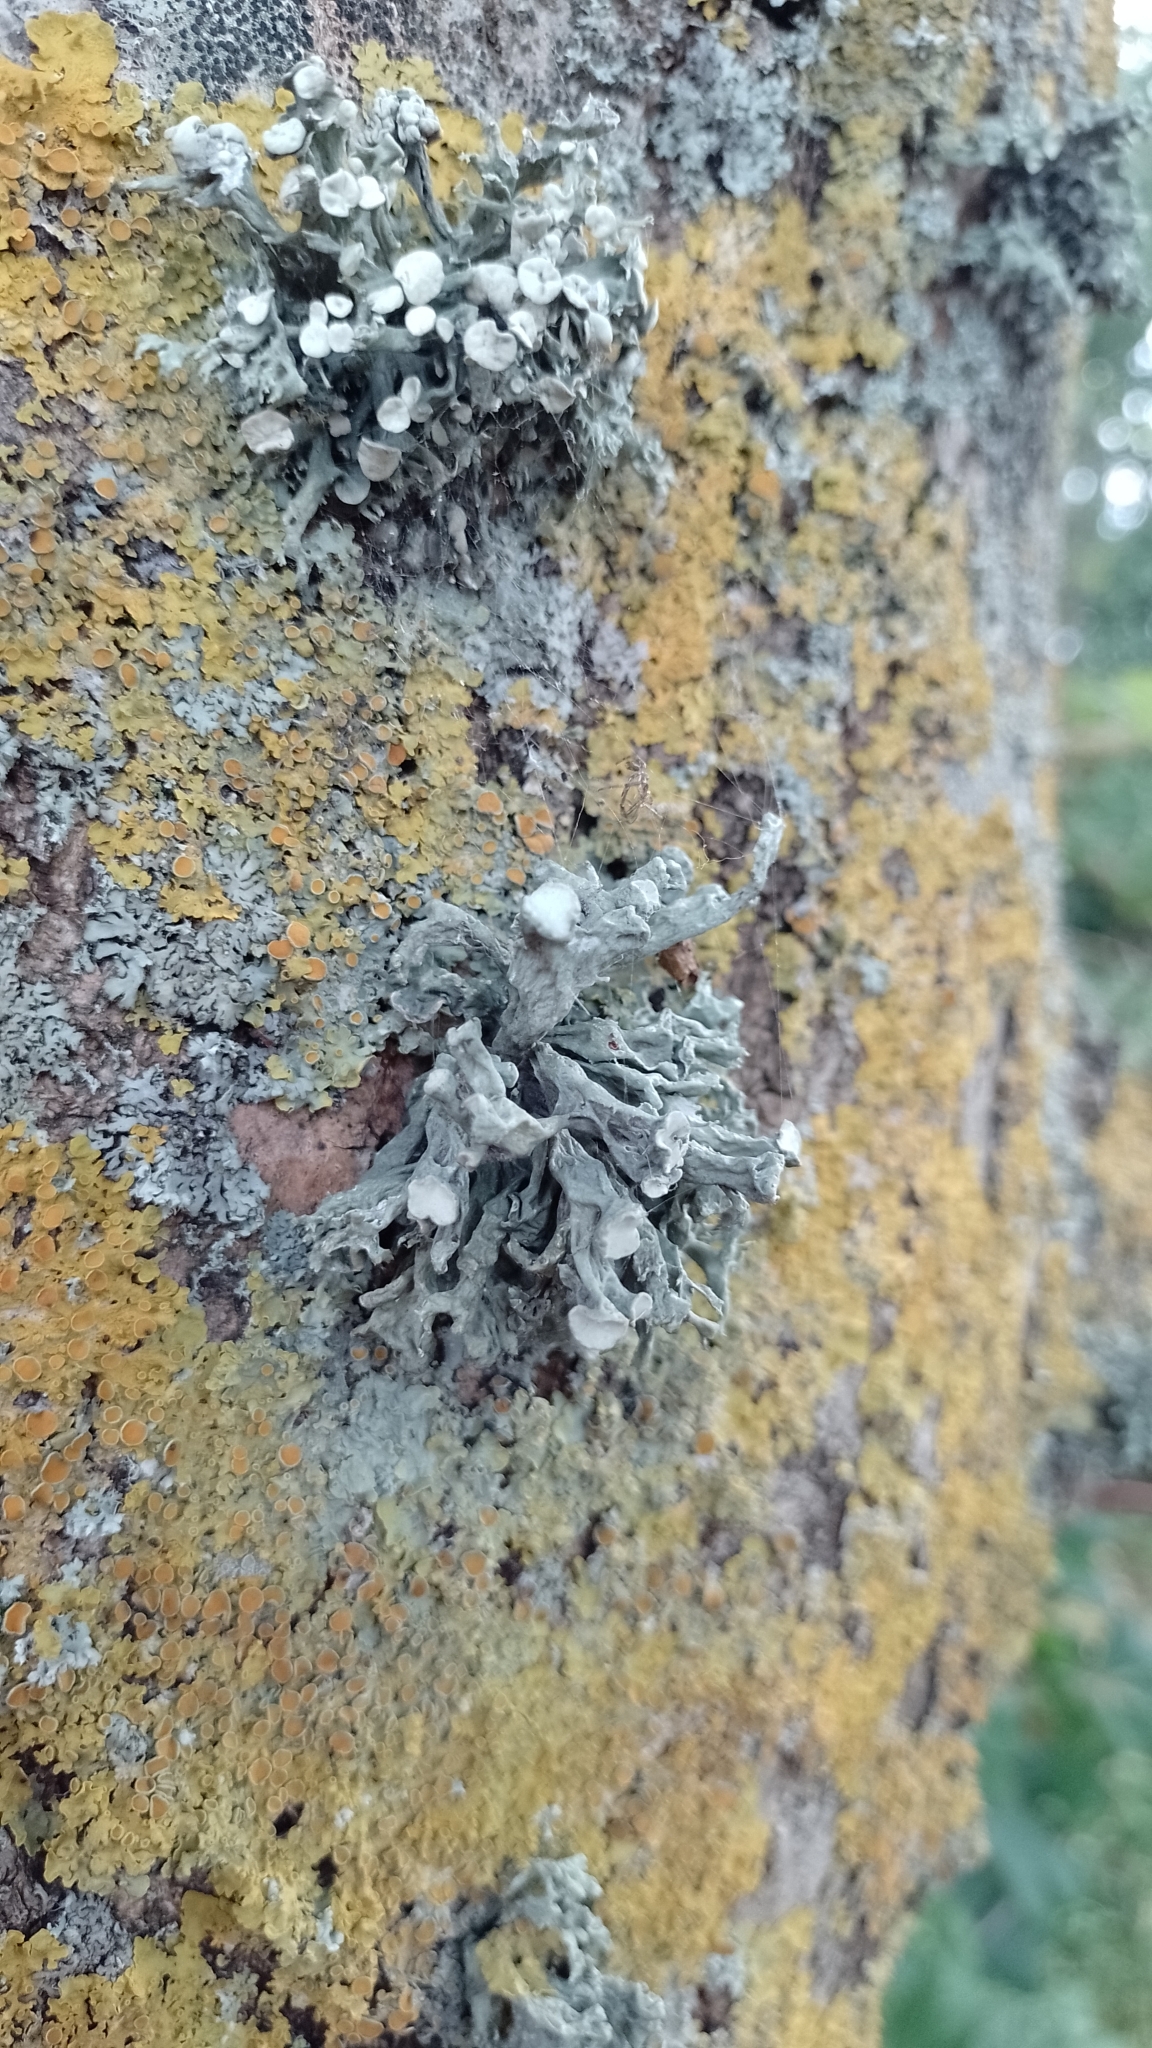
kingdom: Fungi
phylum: Ascomycota
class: Lecanoromycetes
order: Lecanorales
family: Ramalinaceae
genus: Ramalina
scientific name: Ramalina fastigiata
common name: Dotted ribbon lichen
